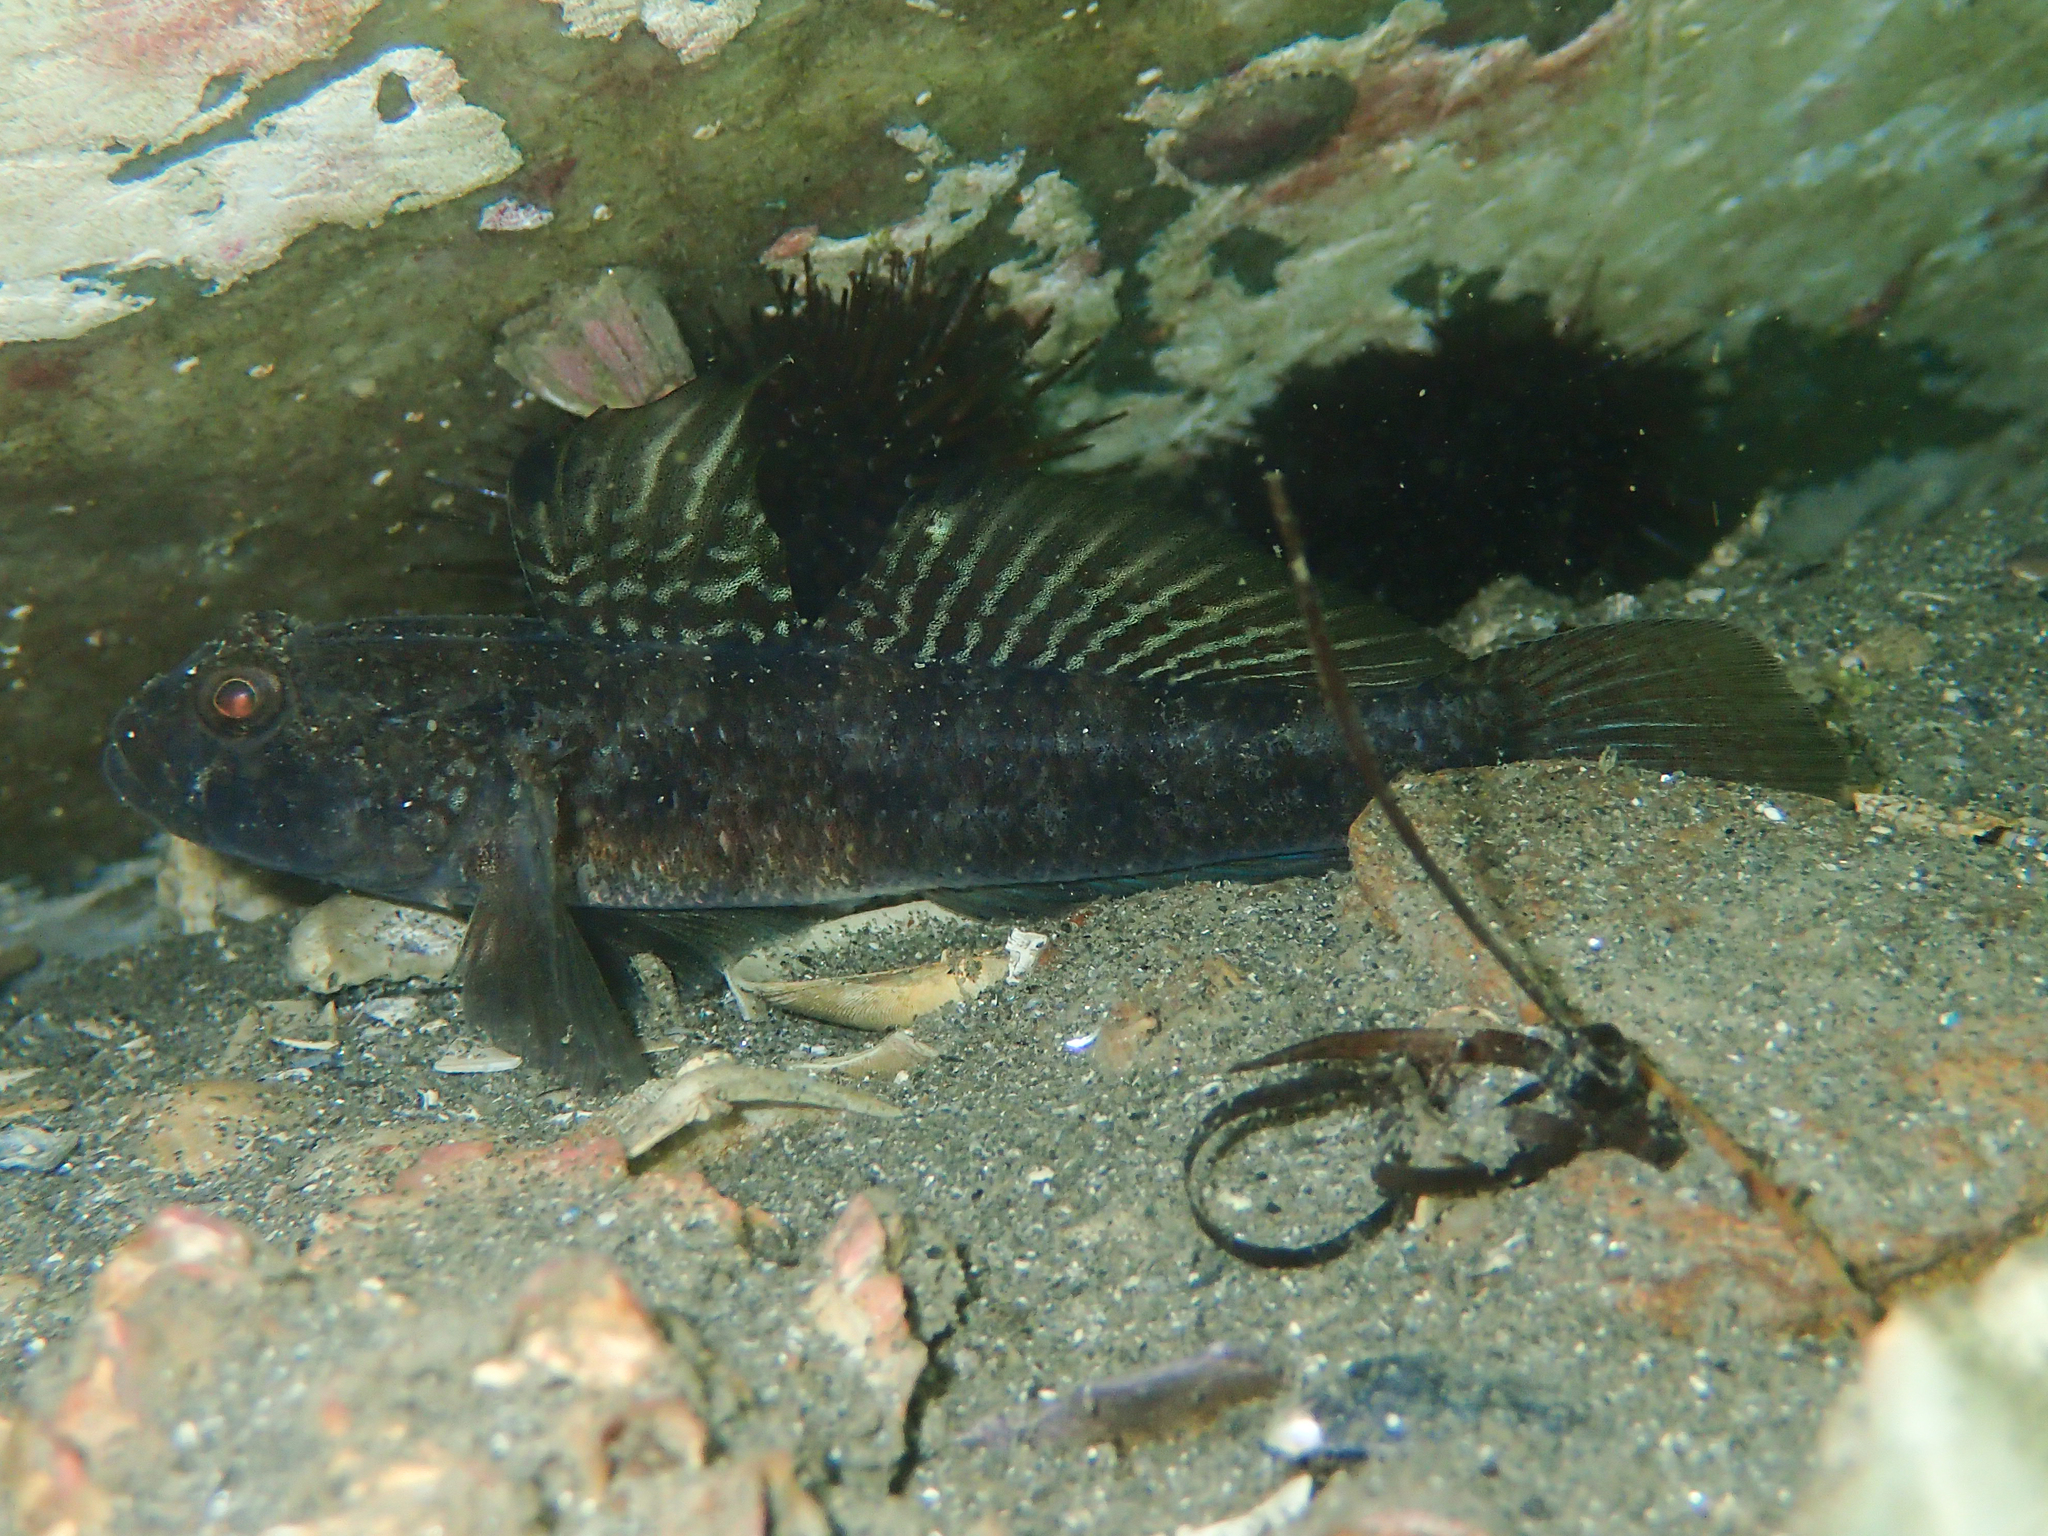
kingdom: Animalia
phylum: Chordata
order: Perciformes
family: Gobiidae
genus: Gobius
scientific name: Gobius niger
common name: Black goby
